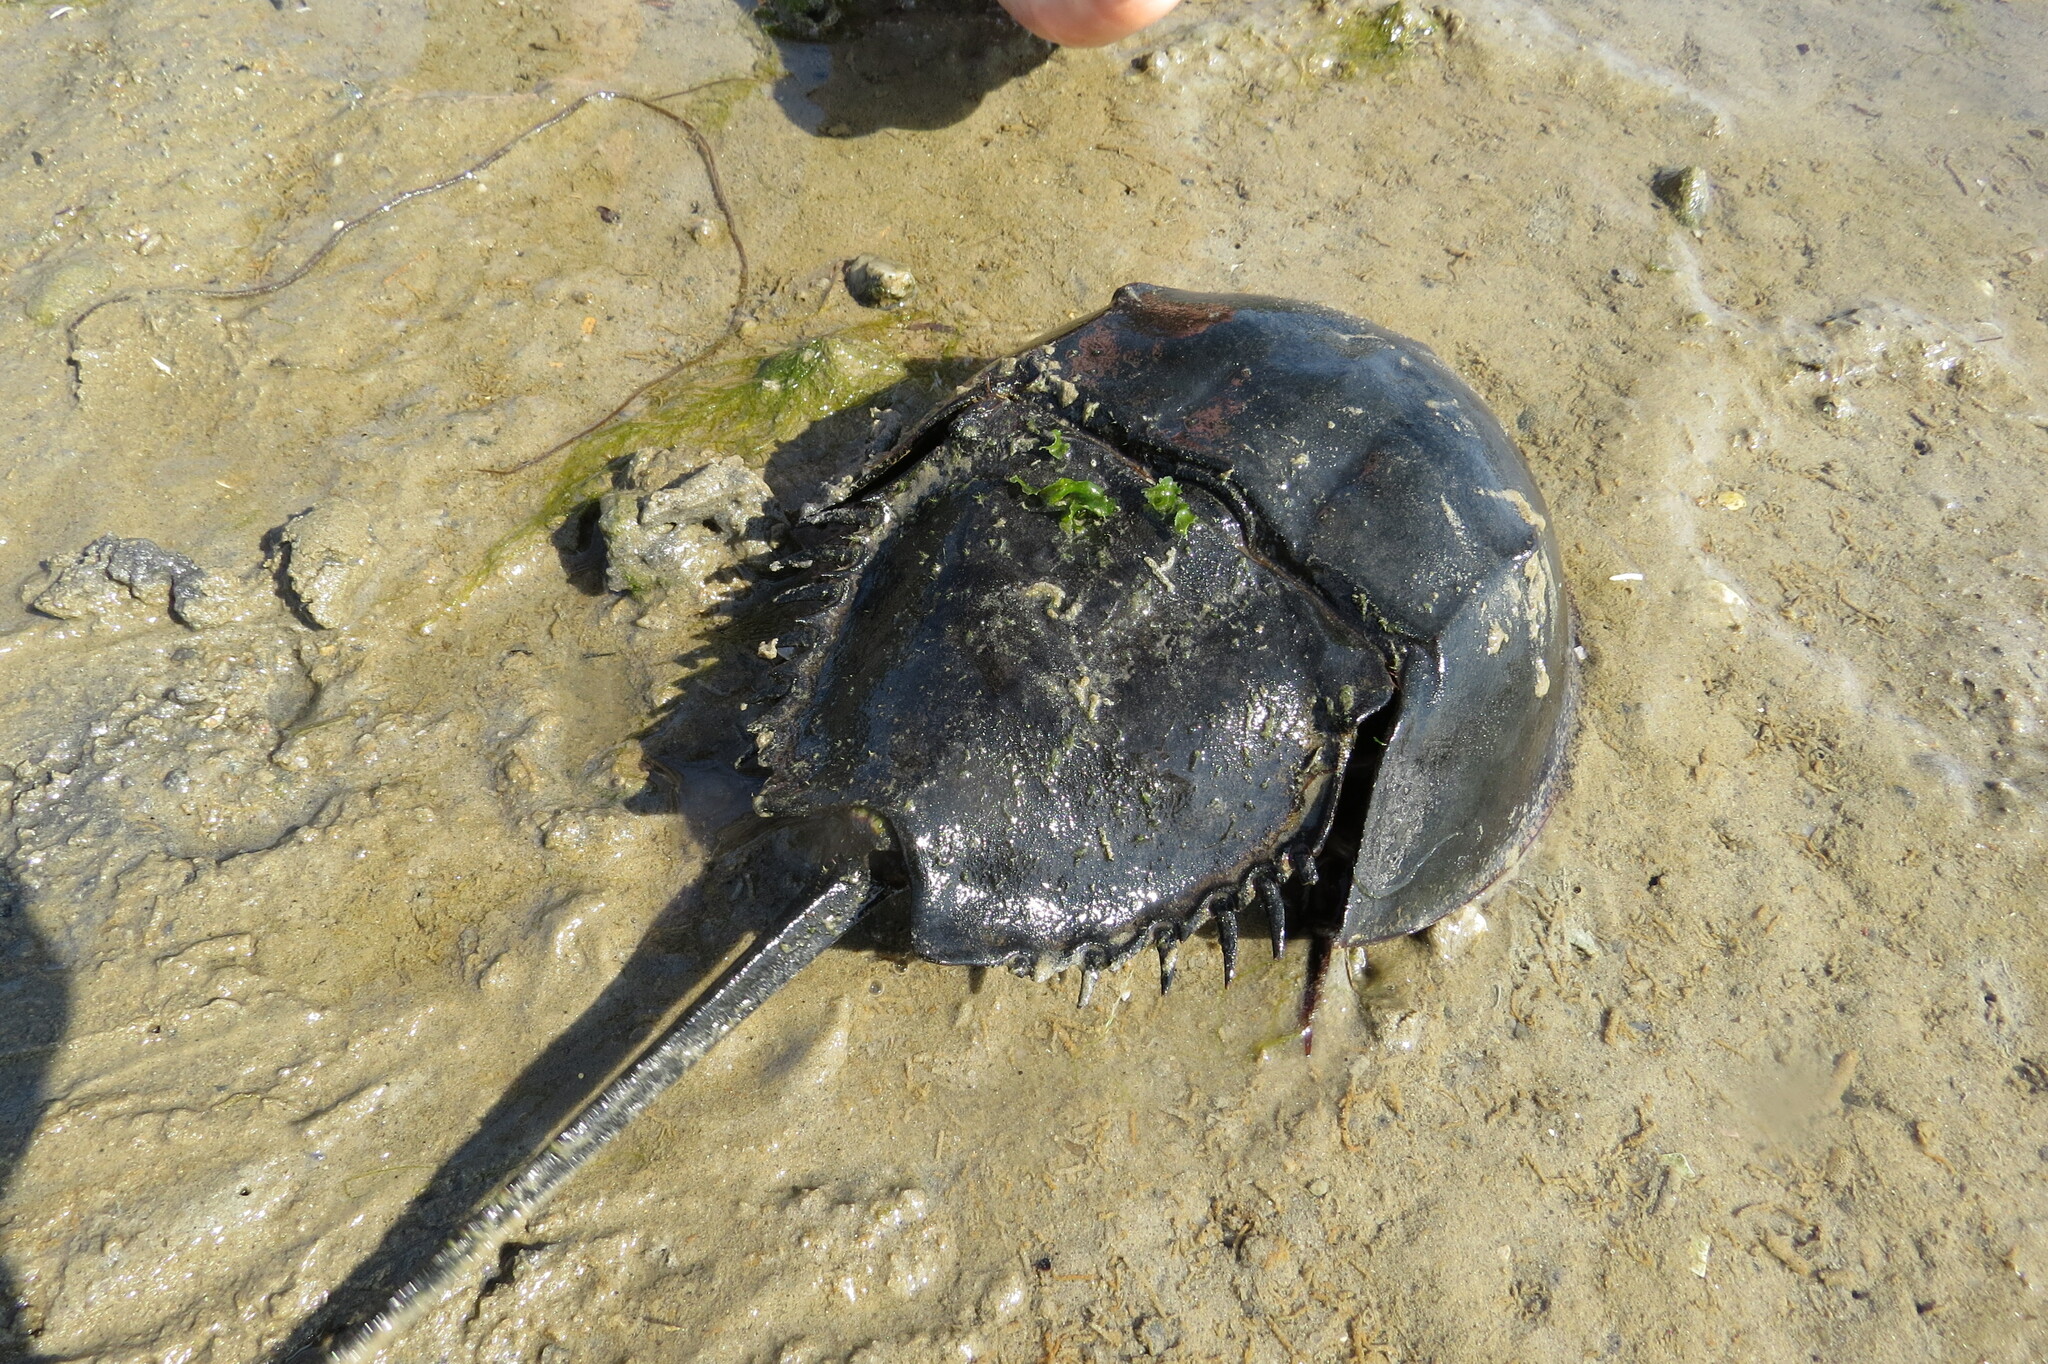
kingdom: Animalia
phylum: Arthropoda
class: Merostomata
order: Xiphosurida
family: Limulidae
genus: Limulus
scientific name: Limulus polyphemus
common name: Horseshoe crab
